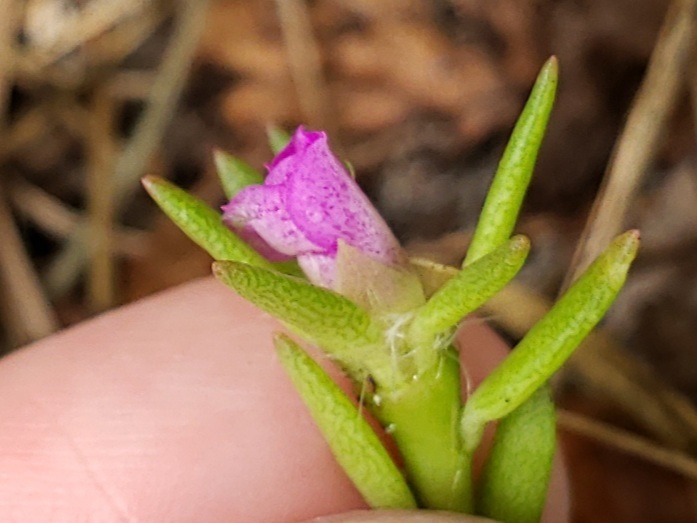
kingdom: Plantae
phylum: Tracheophyta
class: Magnoliopsida
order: Caryophyllales
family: Portulacaceae
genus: Portulaca
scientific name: Portulaca pilosa
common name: Kiss me quick
